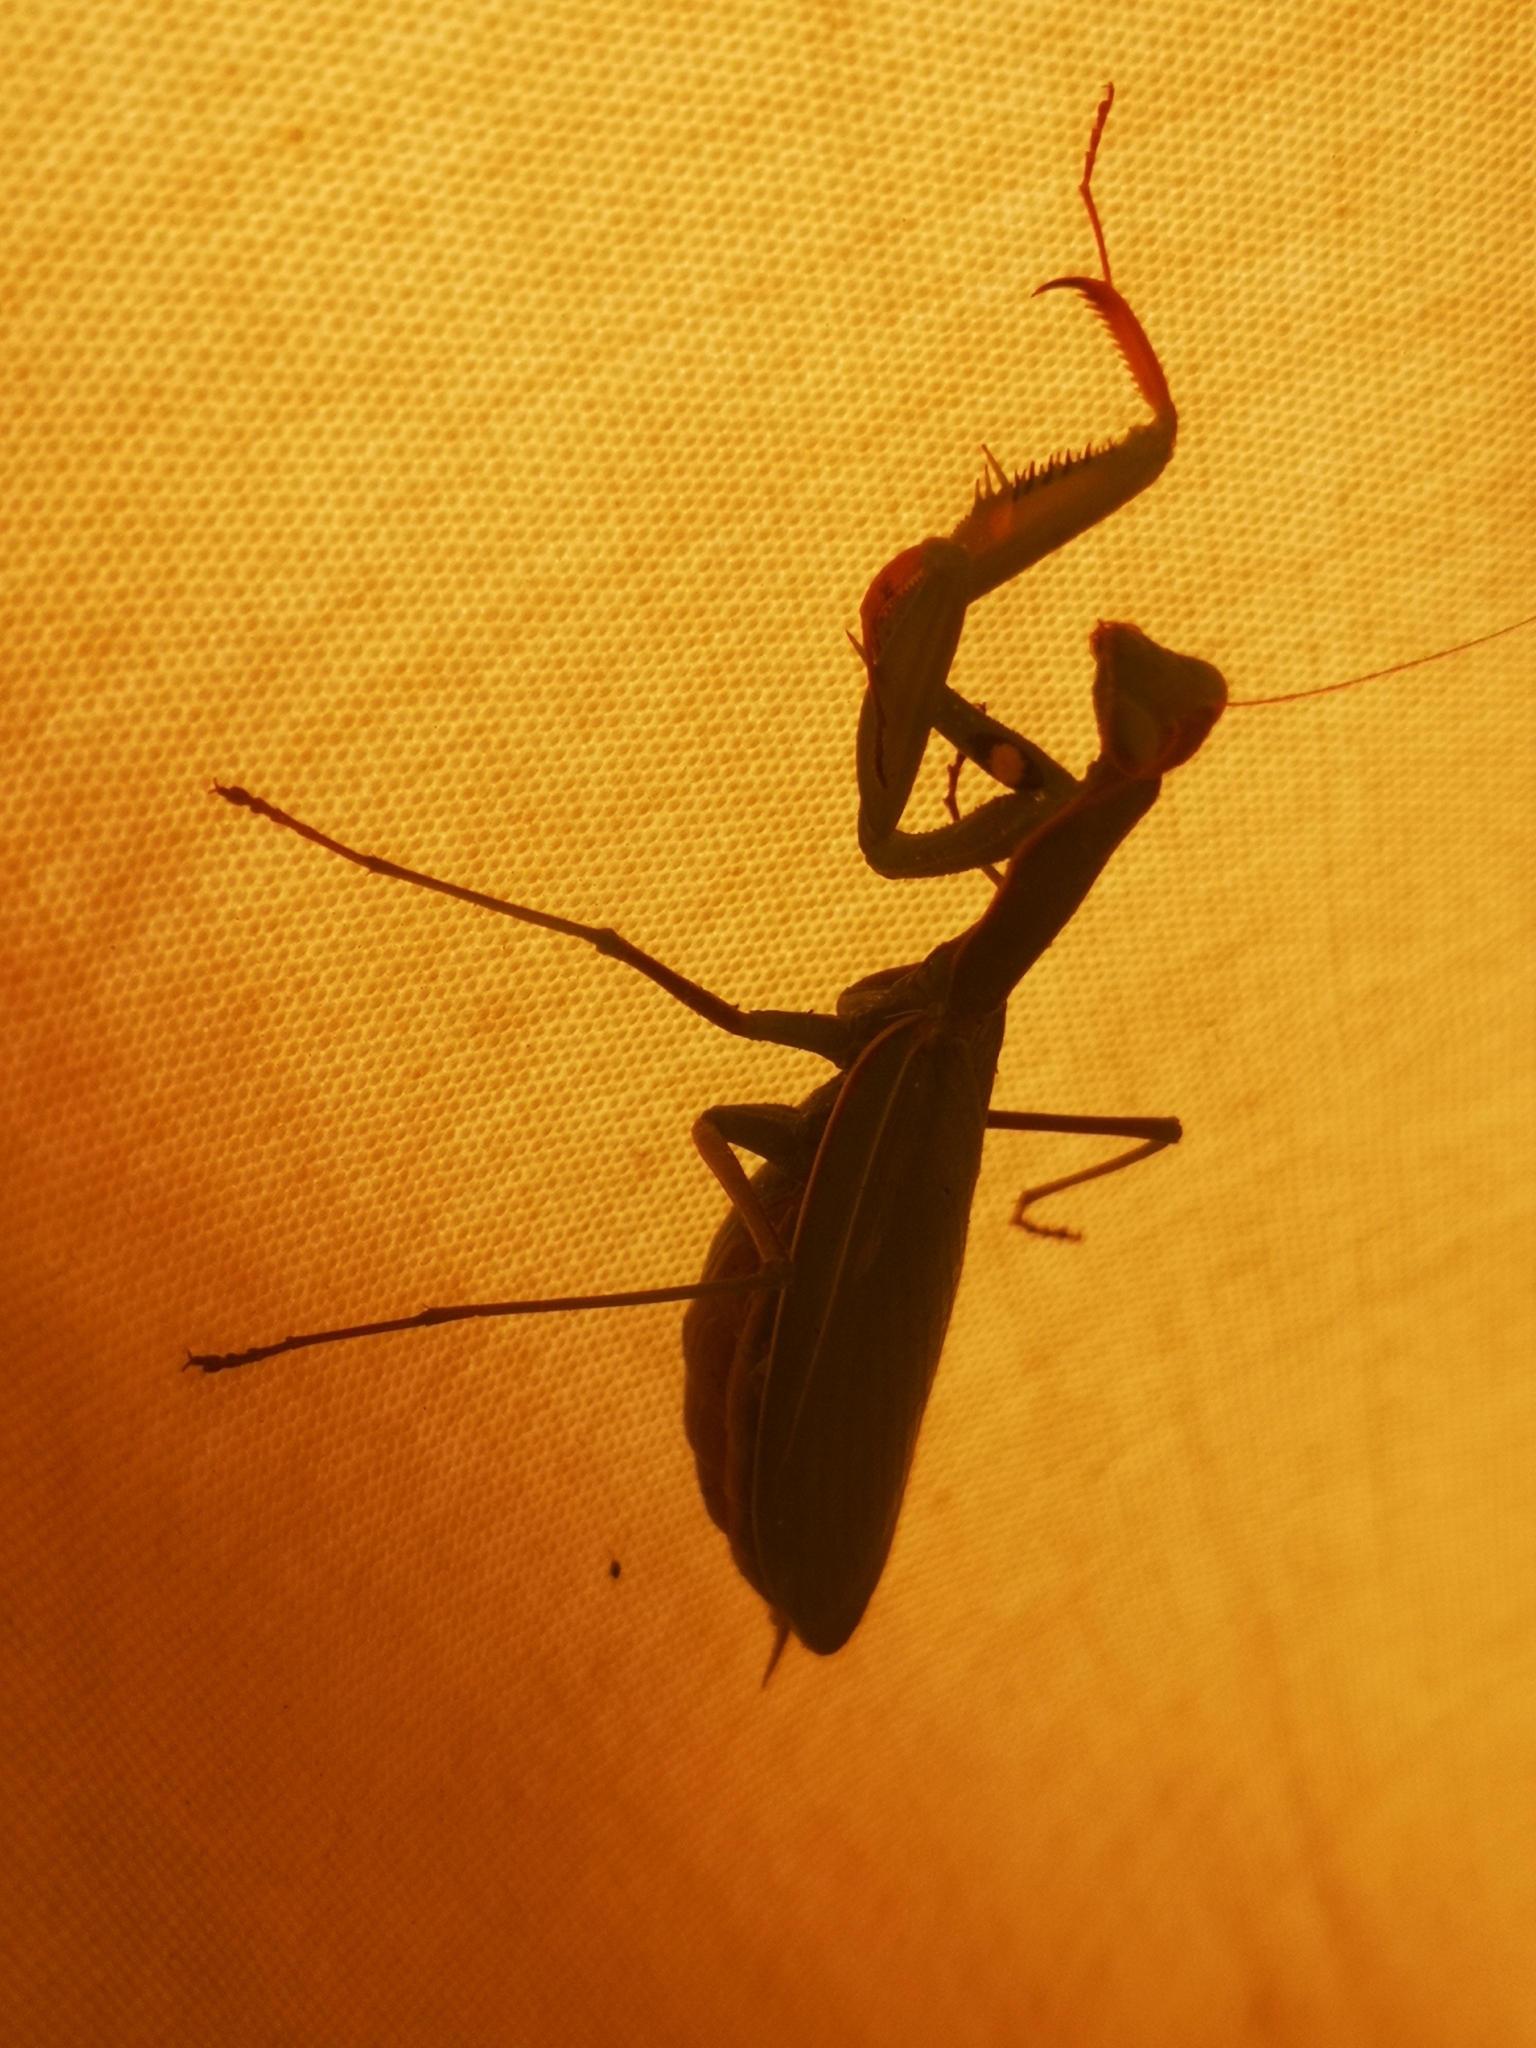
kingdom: Animalia
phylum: Arthropoda
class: Insecta
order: Mantodea
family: Mantidae
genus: Mantis
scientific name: Mantis religiosa
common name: Praying mantis
